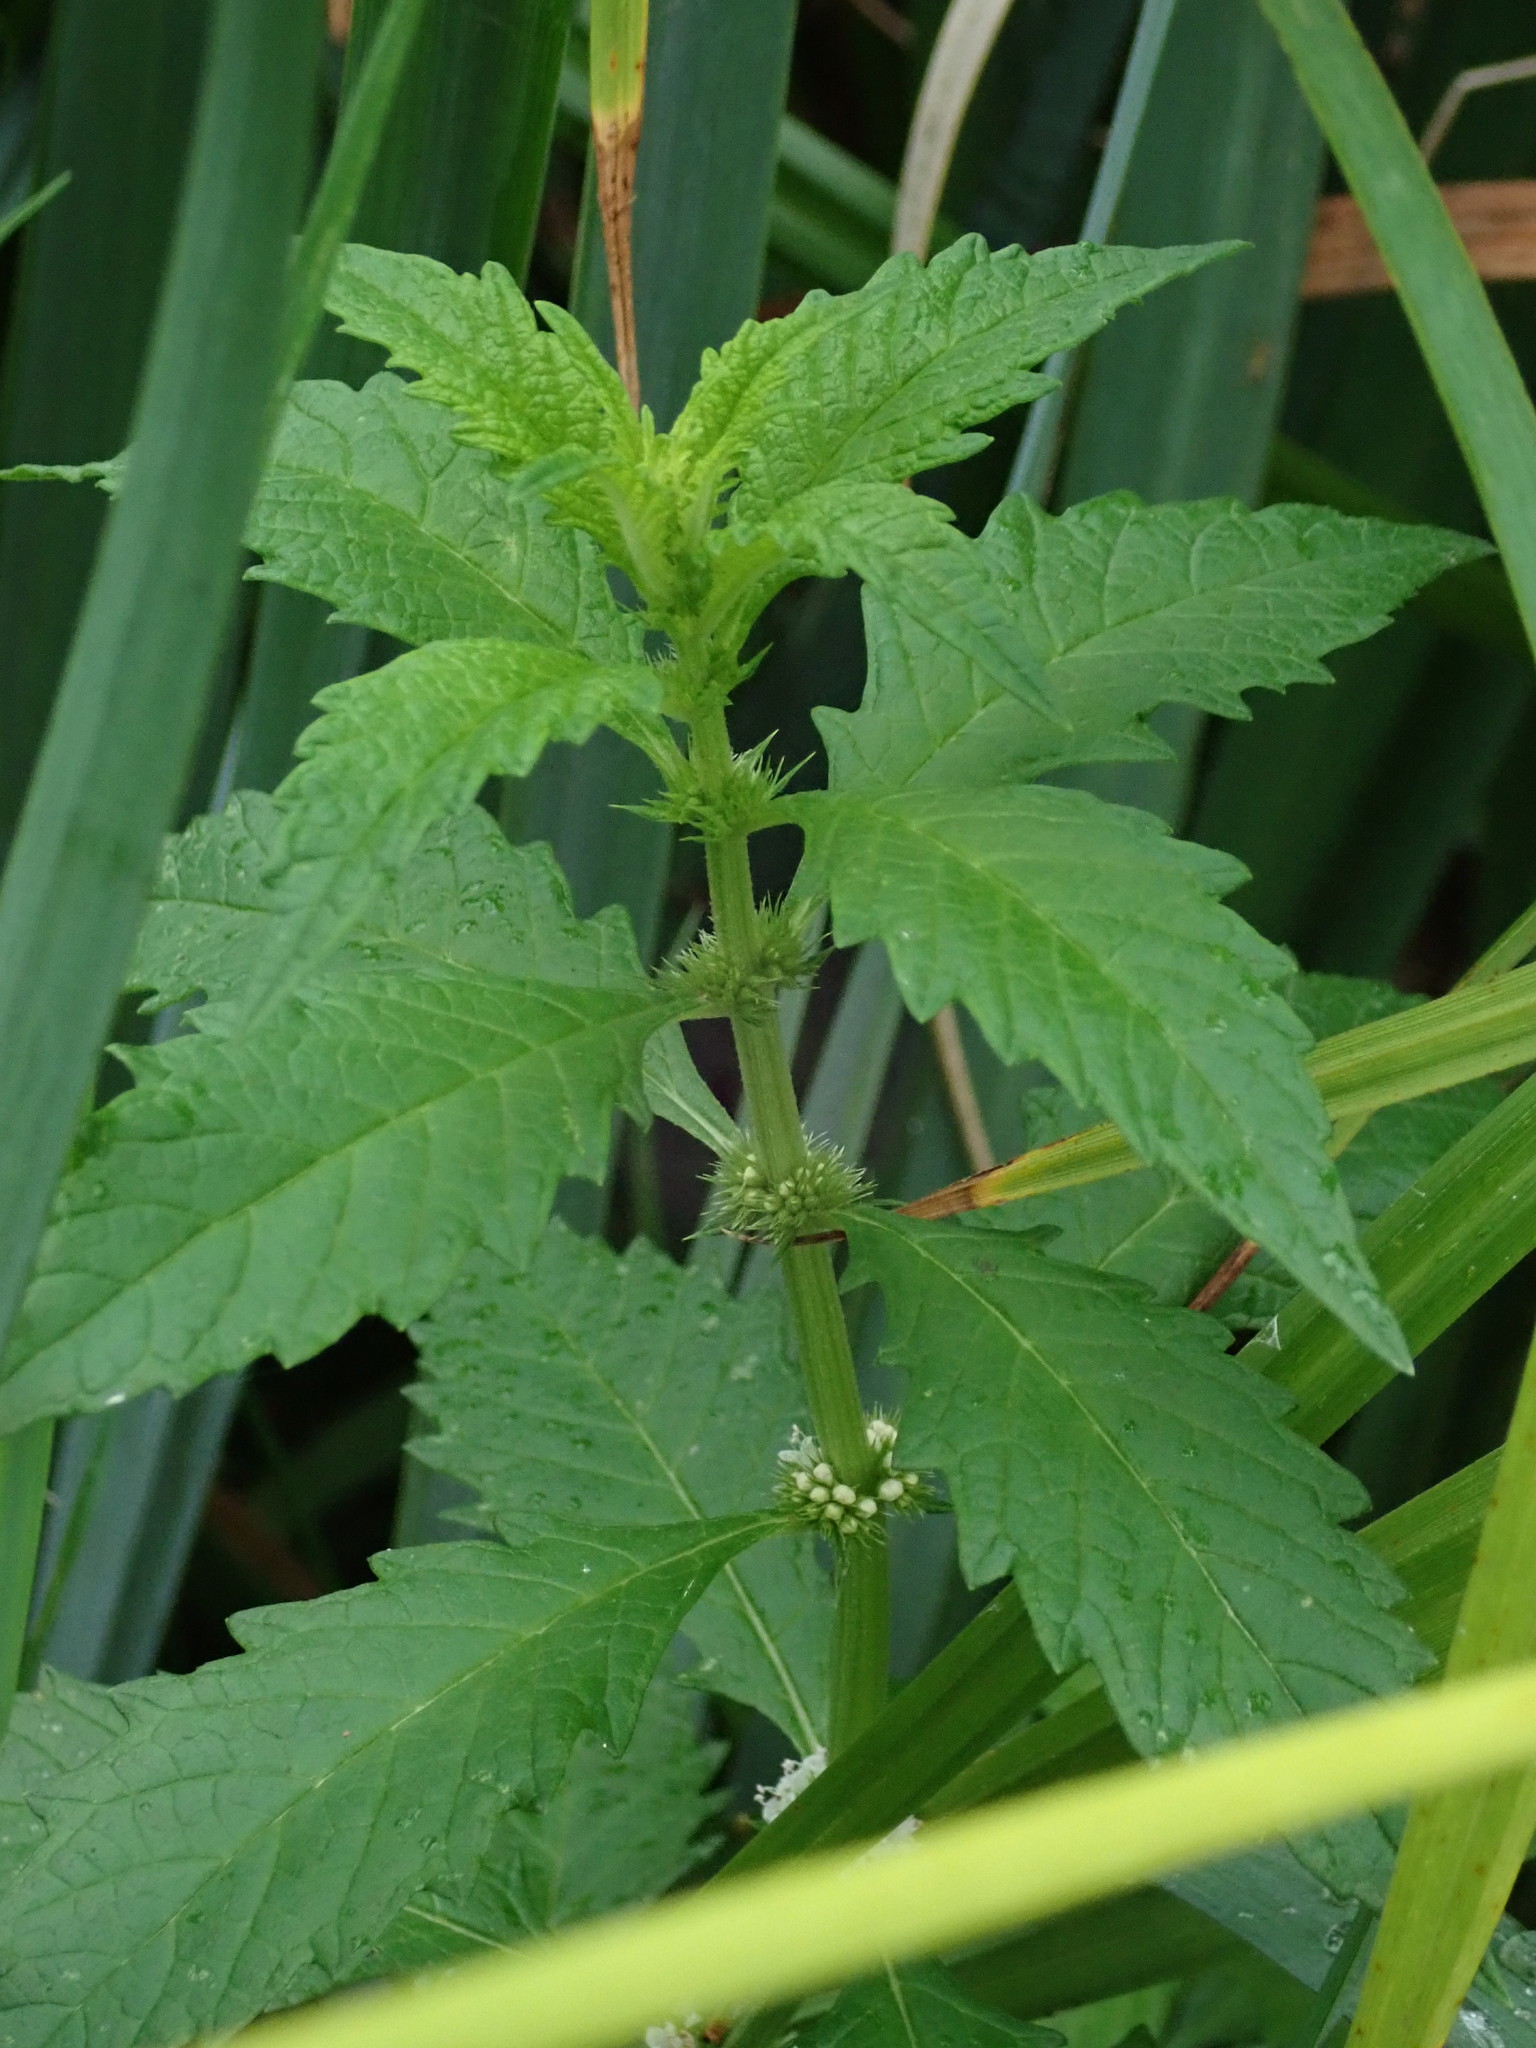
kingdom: Plantae
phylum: Tracheophyta
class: Magnoliopsida
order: Lamiales
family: Lamiaceae
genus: Lycopus
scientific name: Lycopus europaeus
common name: European bugleweed
